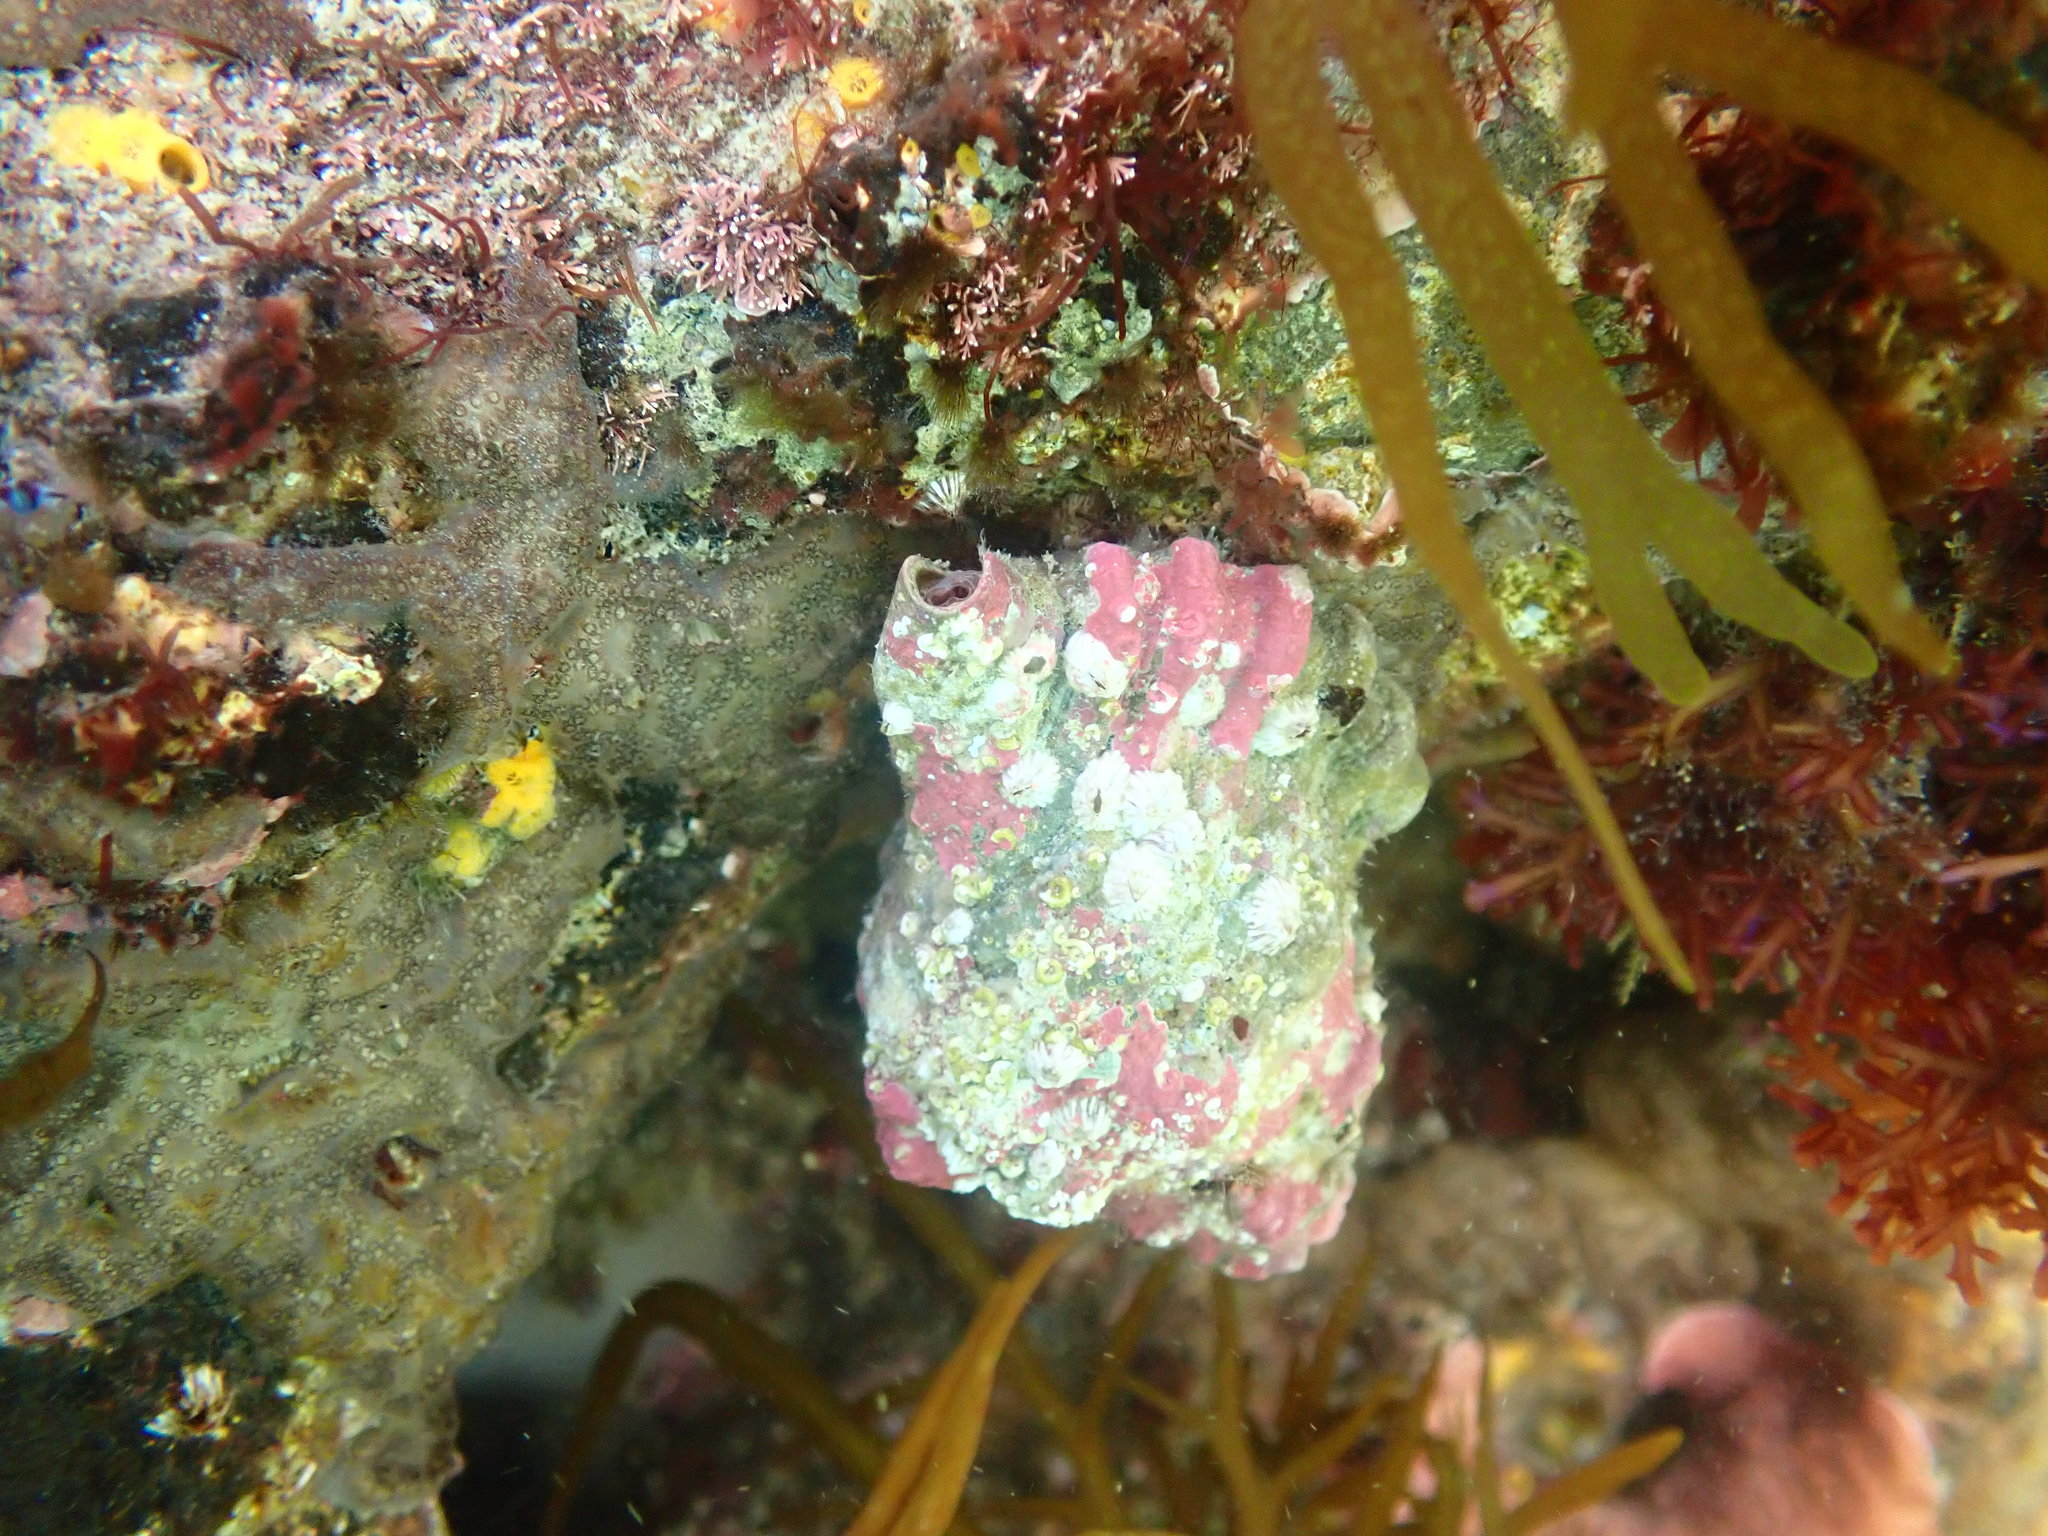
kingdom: Animalia
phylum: Mollusca
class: Gastropoda
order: Littorinimorpha
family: Cymatiidae
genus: Cabestana
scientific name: Cabestana spengleri
